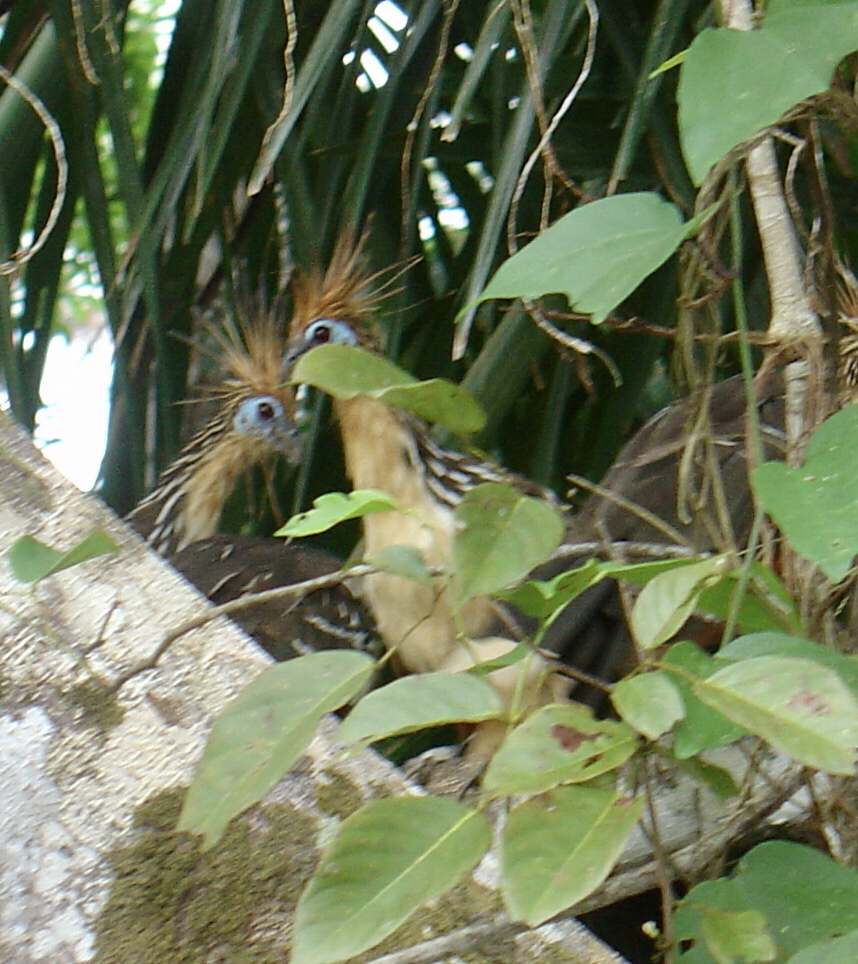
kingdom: Animalia
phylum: Chordata
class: Aves
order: Opisthocomiformes
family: Opisthocomidae
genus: Opisthocomus
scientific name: Opisthocomus hoazin
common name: Hoatzin
